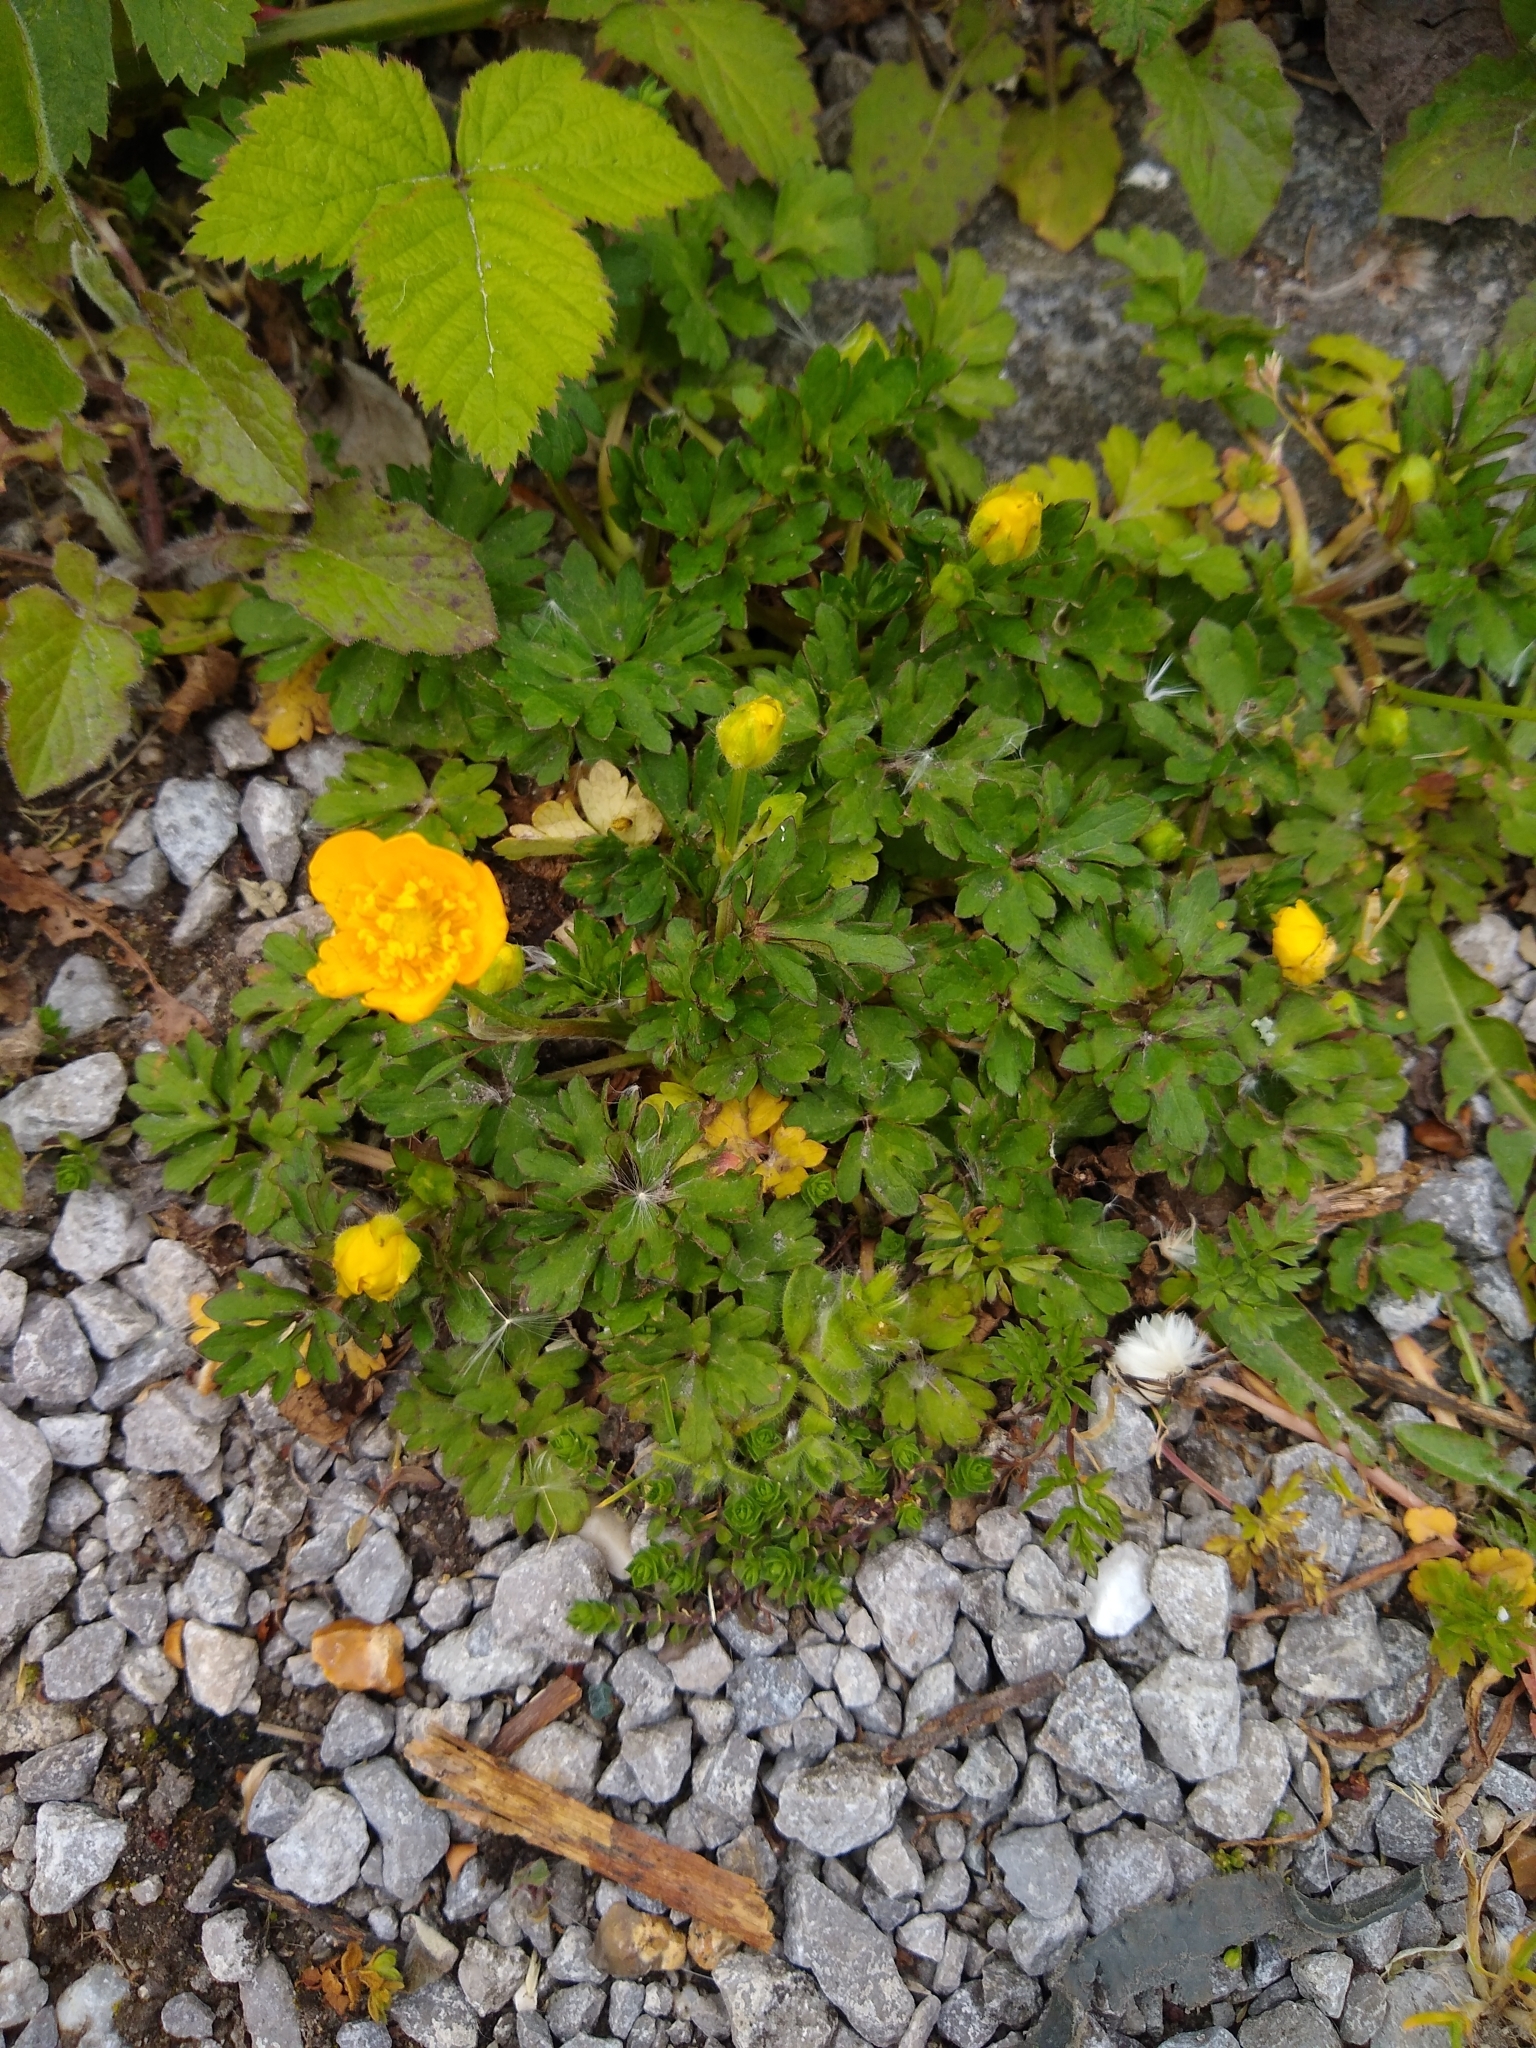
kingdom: Plantae
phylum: Tracheophyta
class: Magnoliopsida
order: Ranunculales
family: Ranunculaceae
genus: Ranunculus
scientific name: Ranunculus repens
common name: Creeping buttercup
